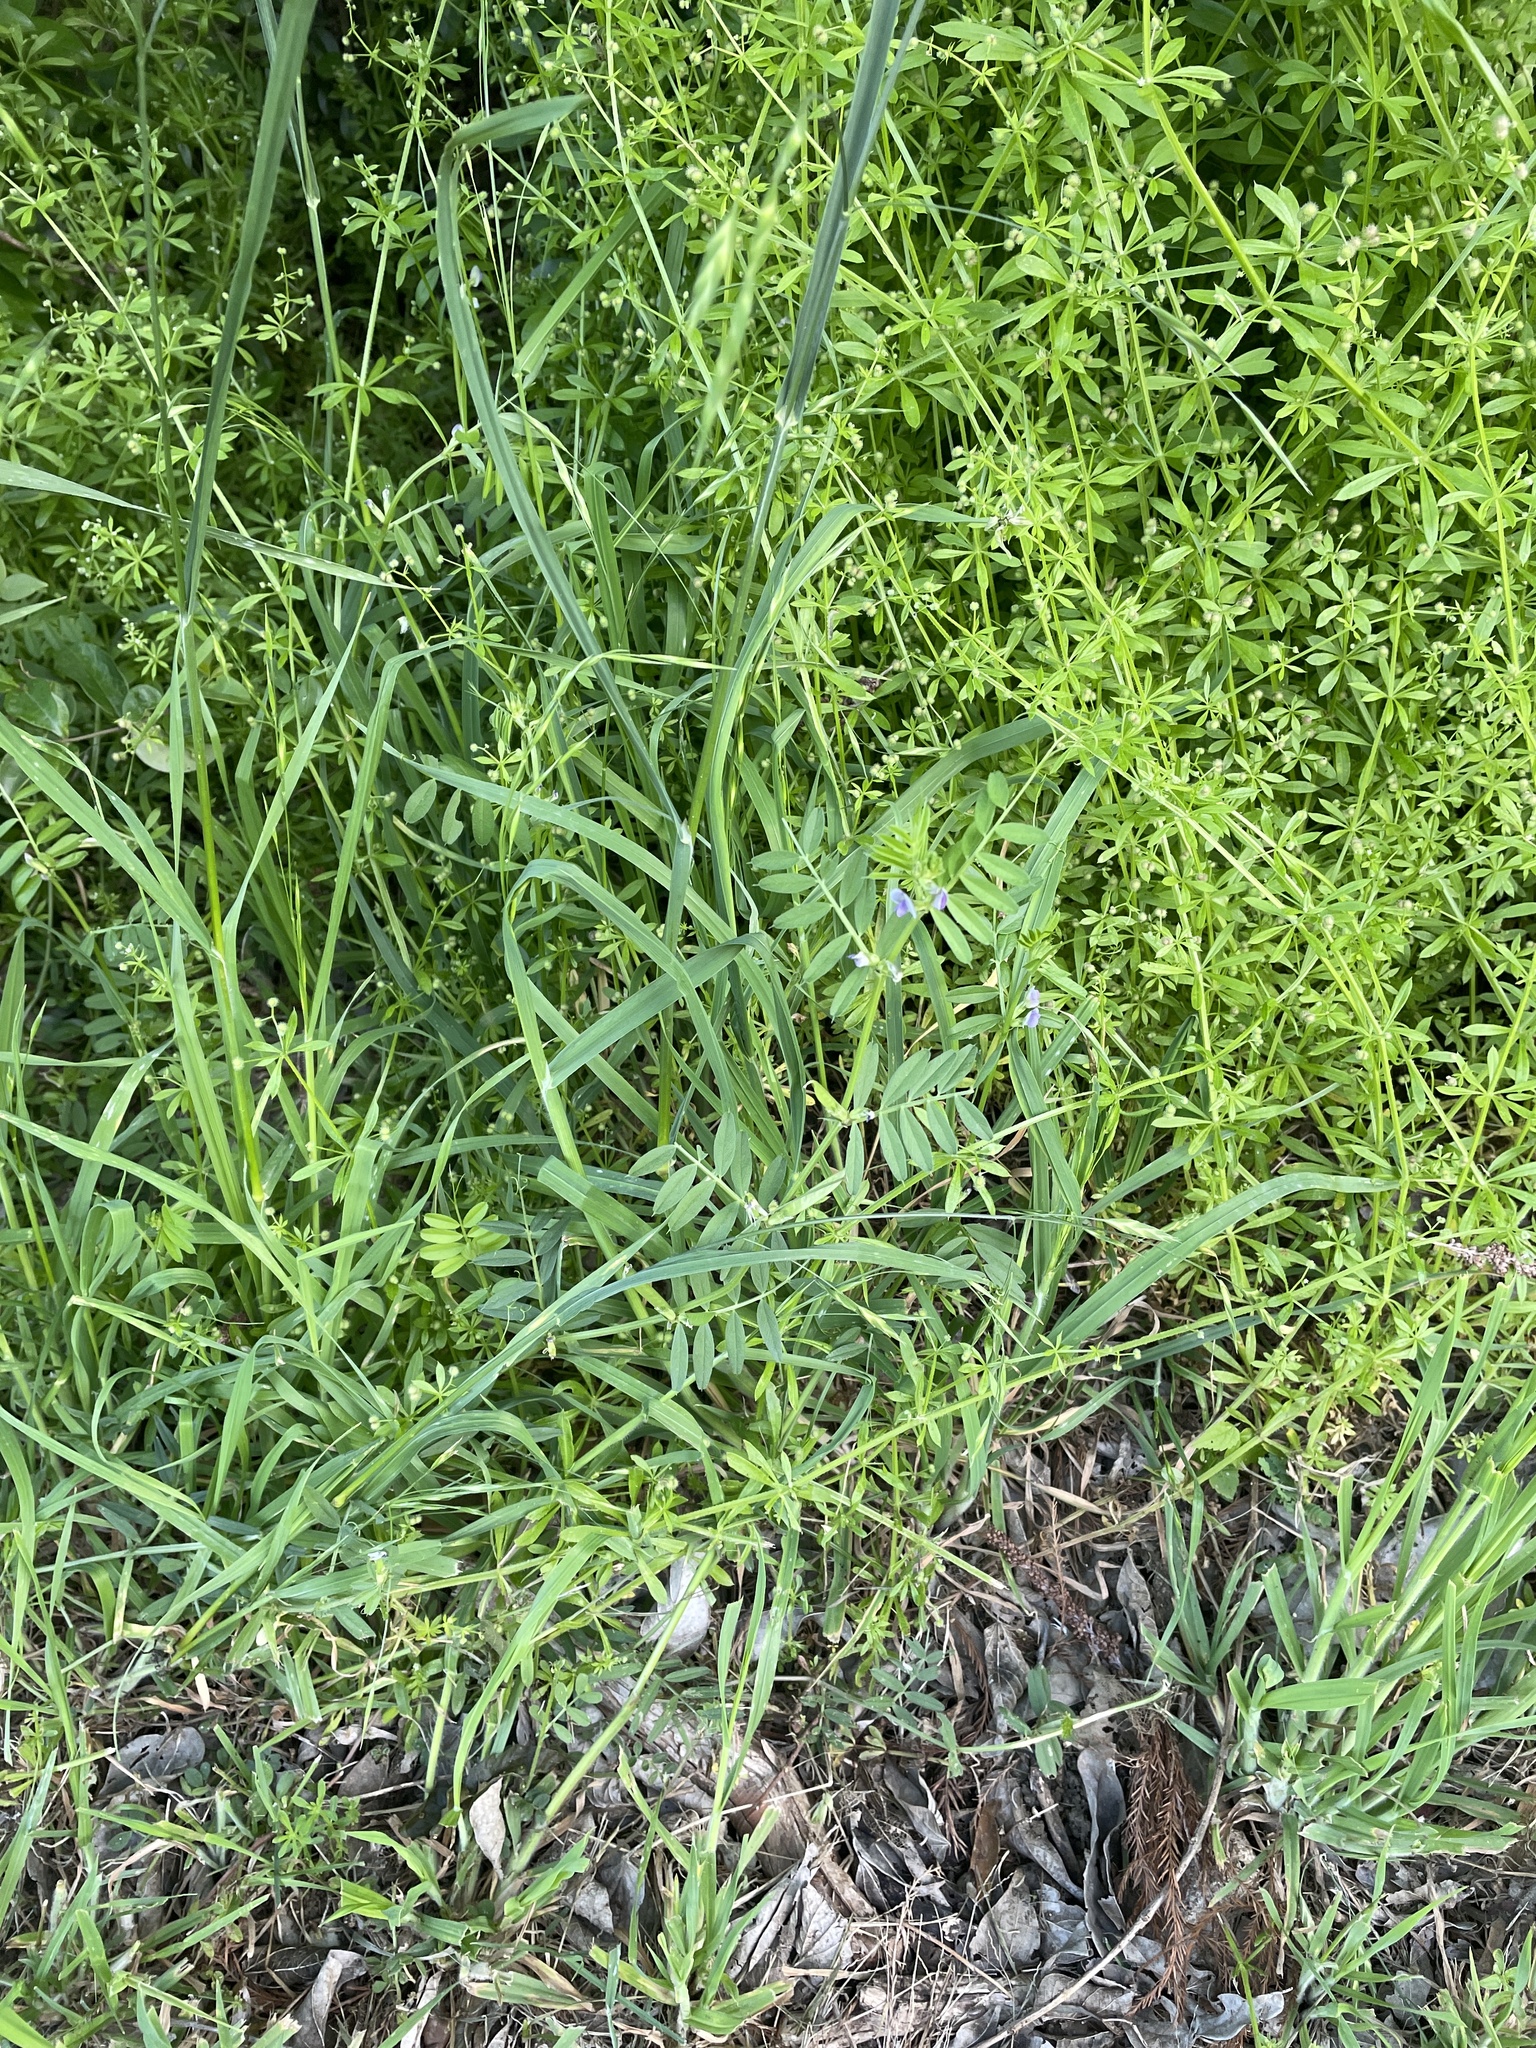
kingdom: Plantae
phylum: Tracheophyta
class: Magnoliopsida
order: Fabales
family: Fabaceae
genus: Vicia
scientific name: Vicia sativa
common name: Garden vetch
